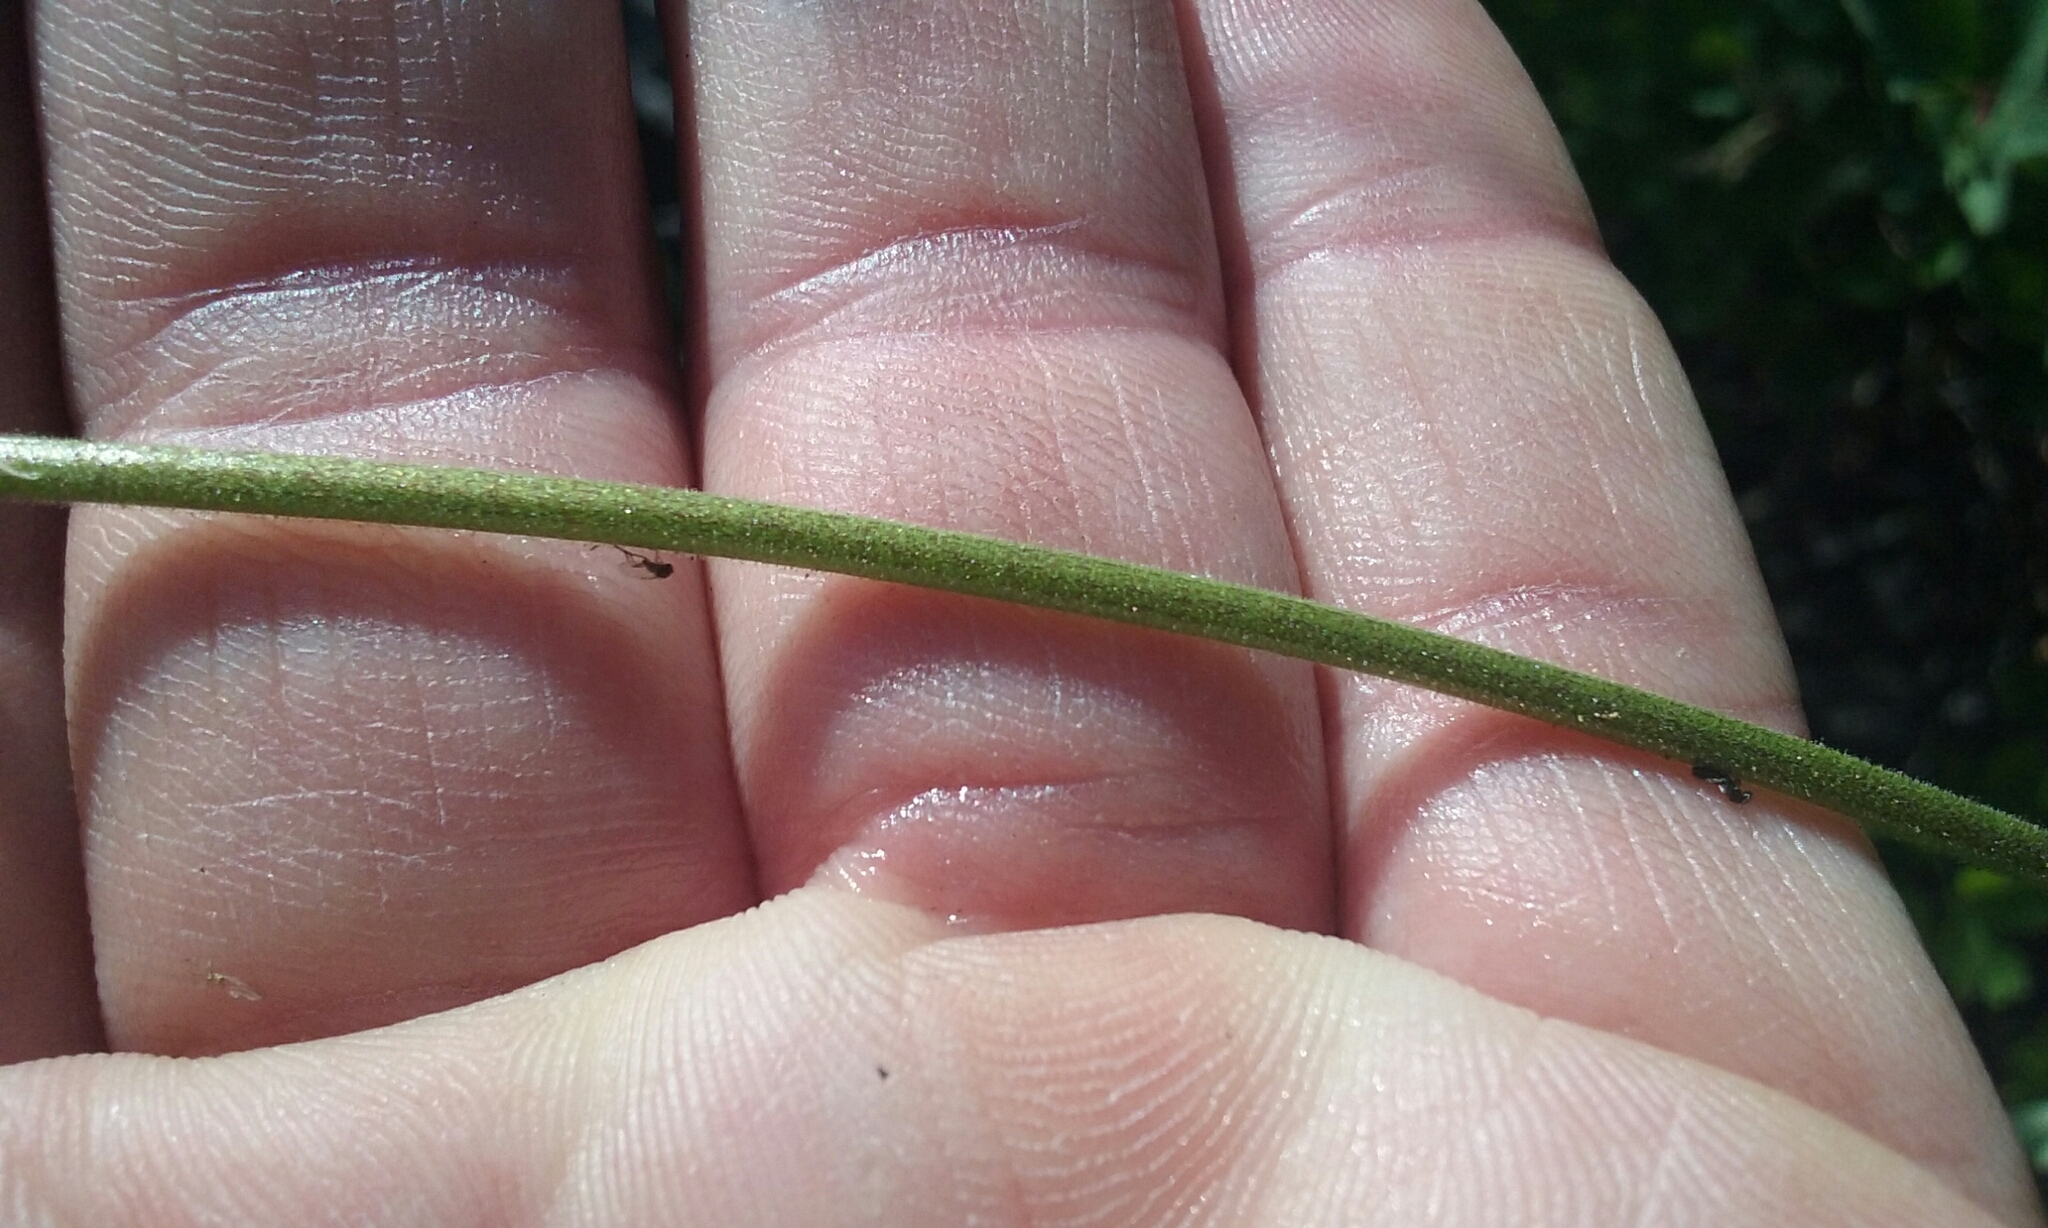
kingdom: Plantae
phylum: Tracheophyta
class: Magnoliopsida
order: Ranunculales
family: Ranunculaceae
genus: Aquilegia
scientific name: Aquilegia formosa
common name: Sitka columbine
